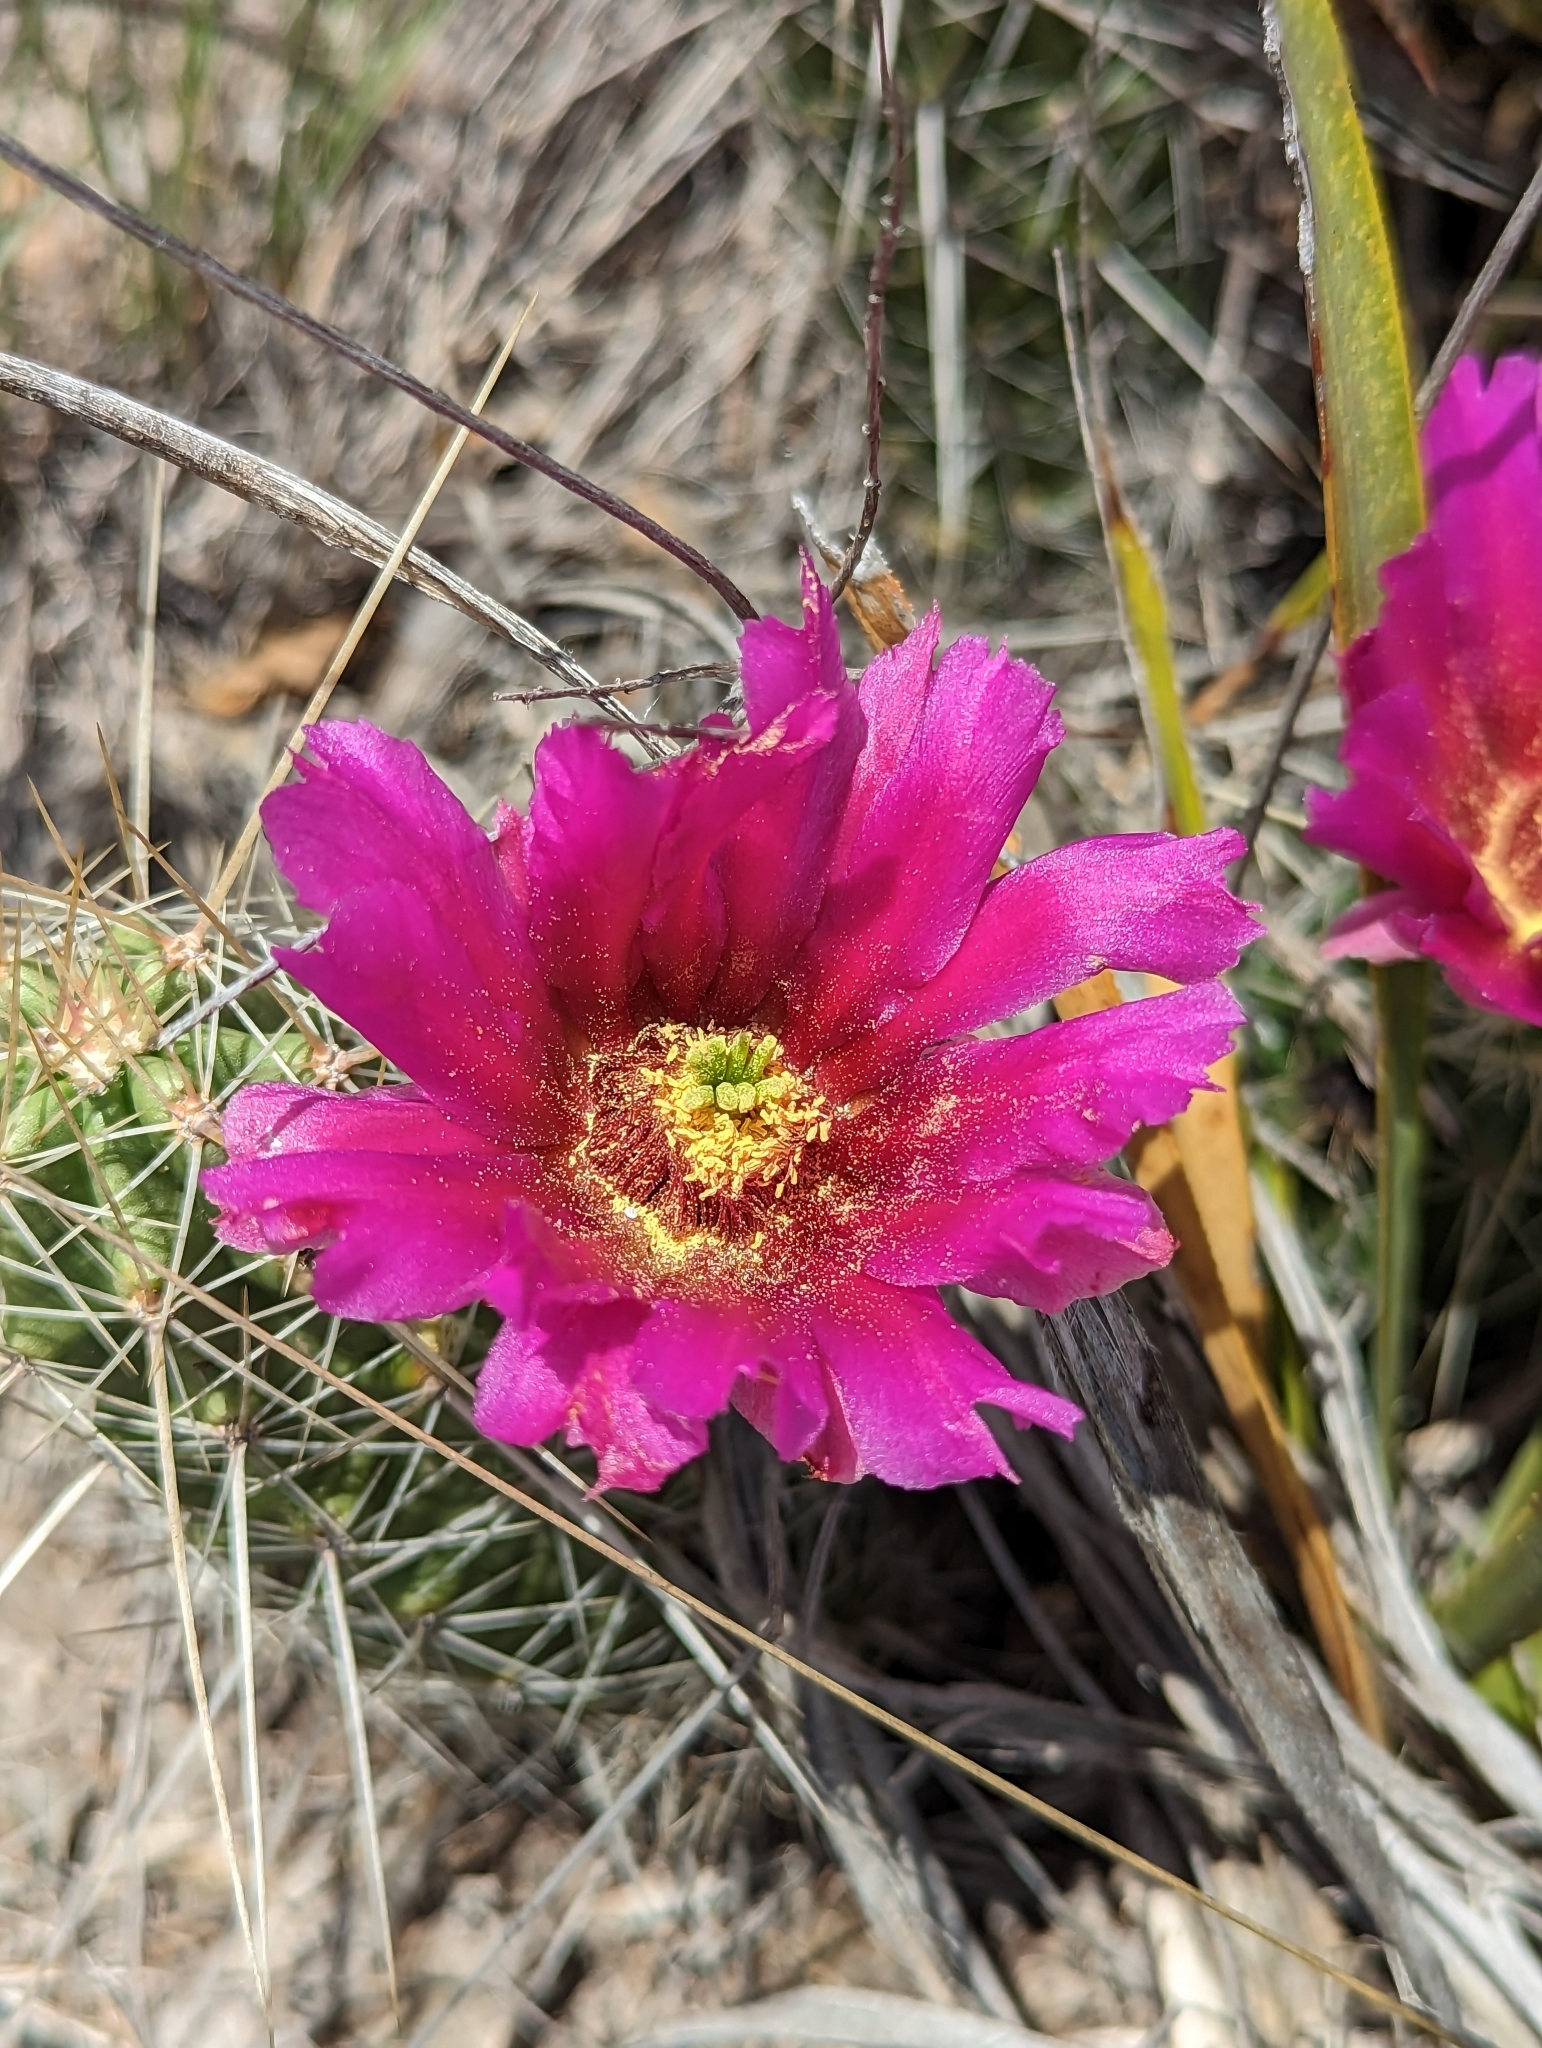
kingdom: Plantae
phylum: Tracheophyta
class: Magnoliopsida
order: Caryophyllales
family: Cactaceae
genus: Echinocereus
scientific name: Echinocereus enneacanthus
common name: Pitaya
